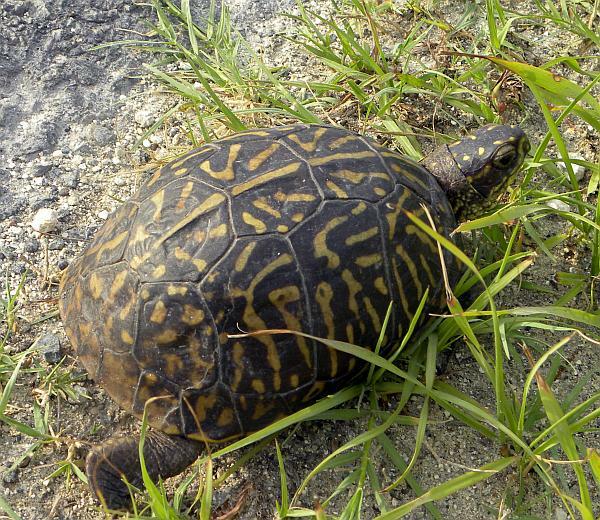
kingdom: Animalia
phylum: Chordata
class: Testudines
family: Emydidae
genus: Terrapene
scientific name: Terrapene carolina
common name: Common box turtle
